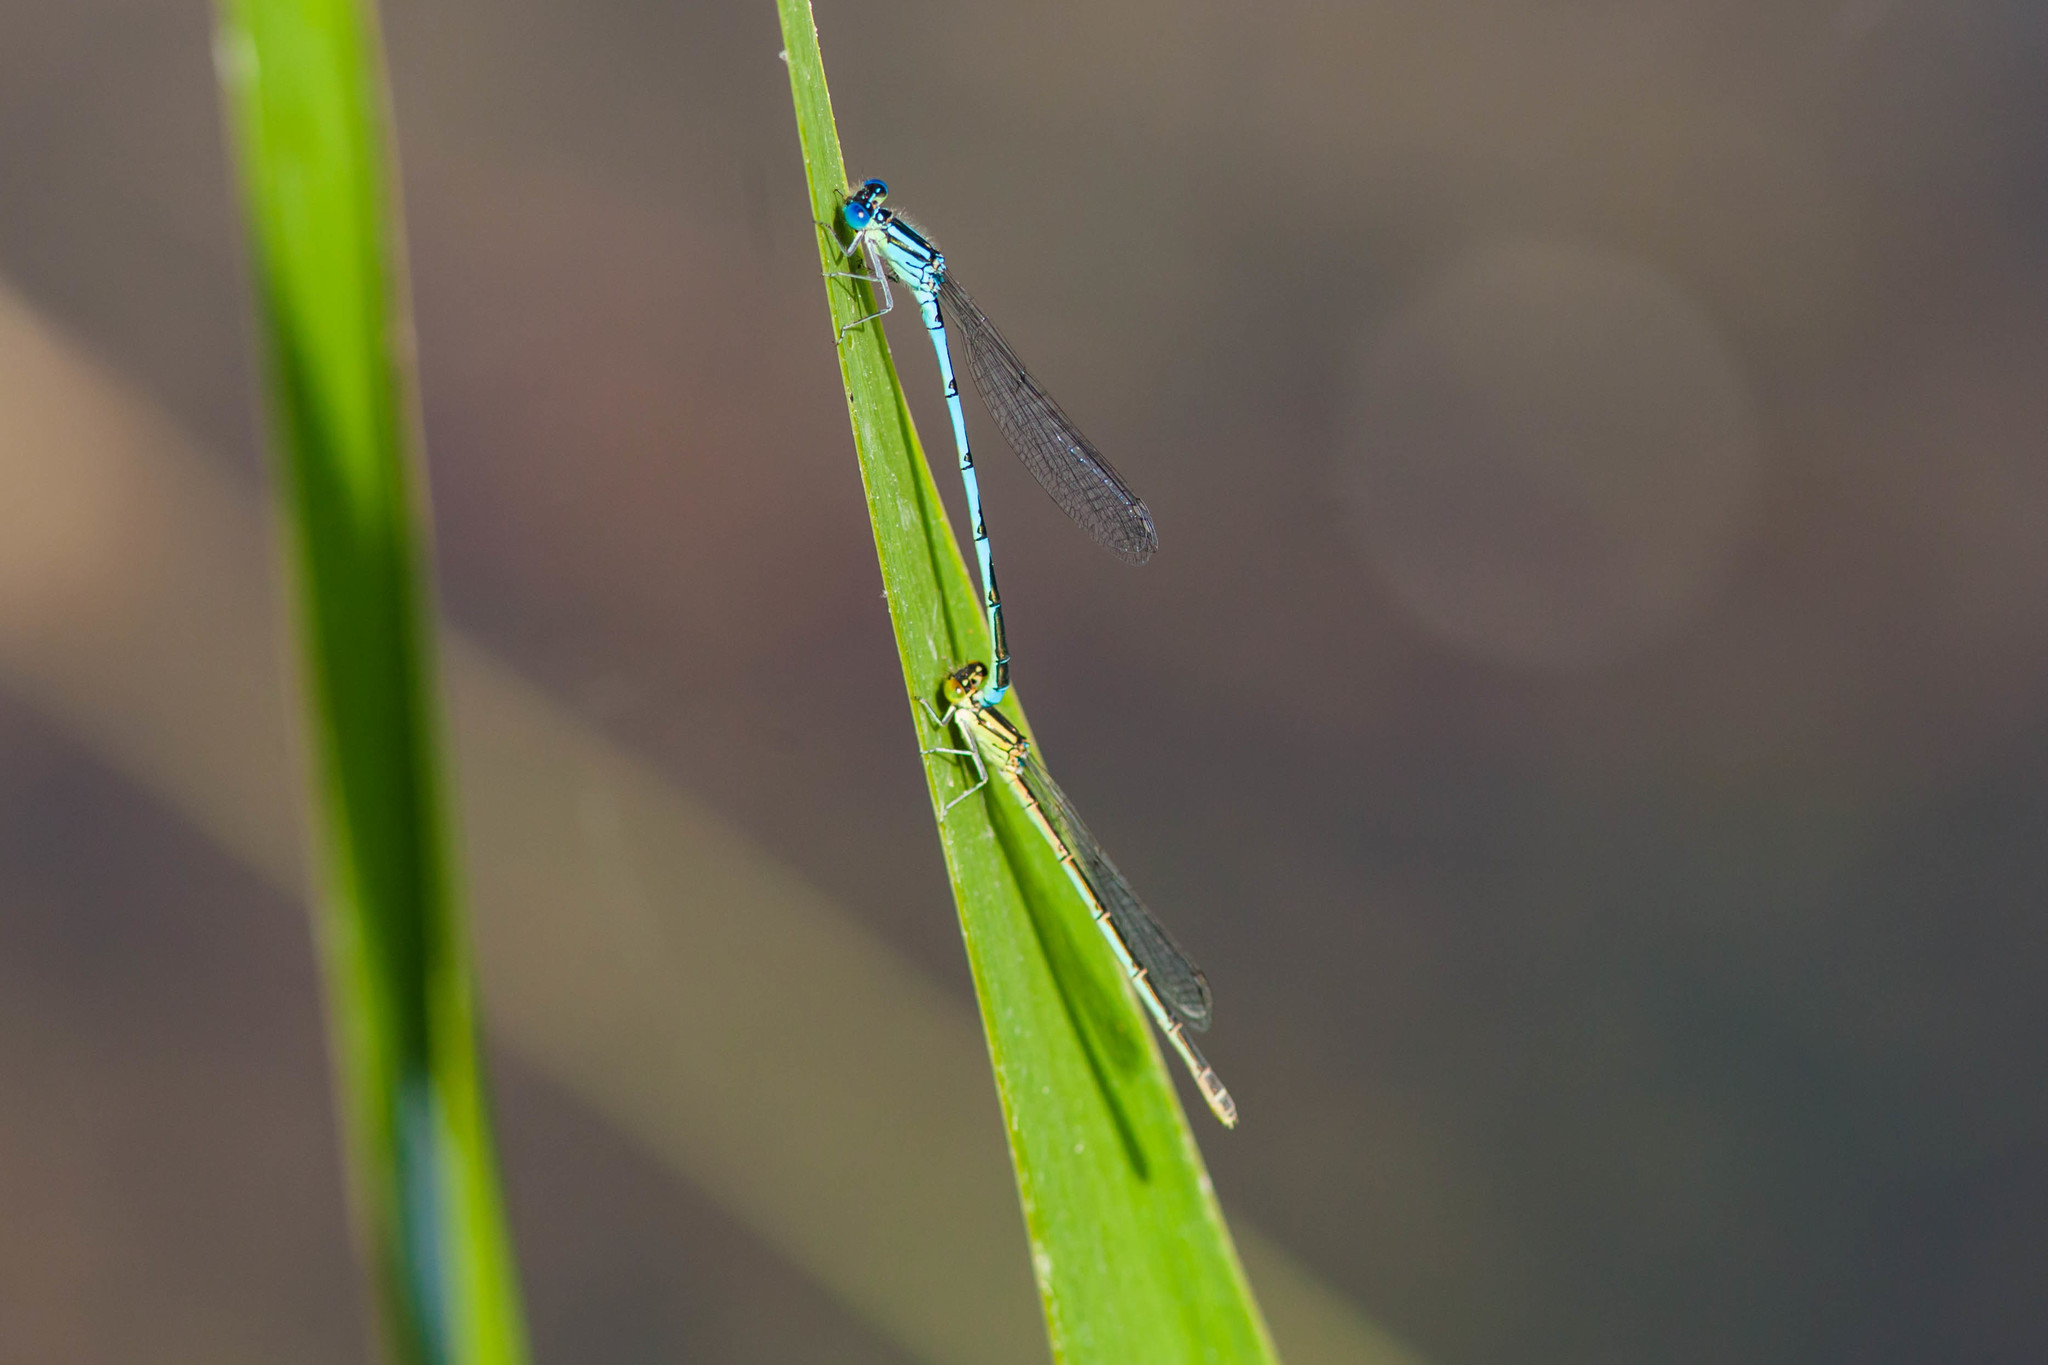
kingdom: Animalia
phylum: Arthropoda
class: Insecta
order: Odonata
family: Coenagrionidae
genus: Erythromma
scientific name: Erythromma lindenii
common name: Blue-eye
